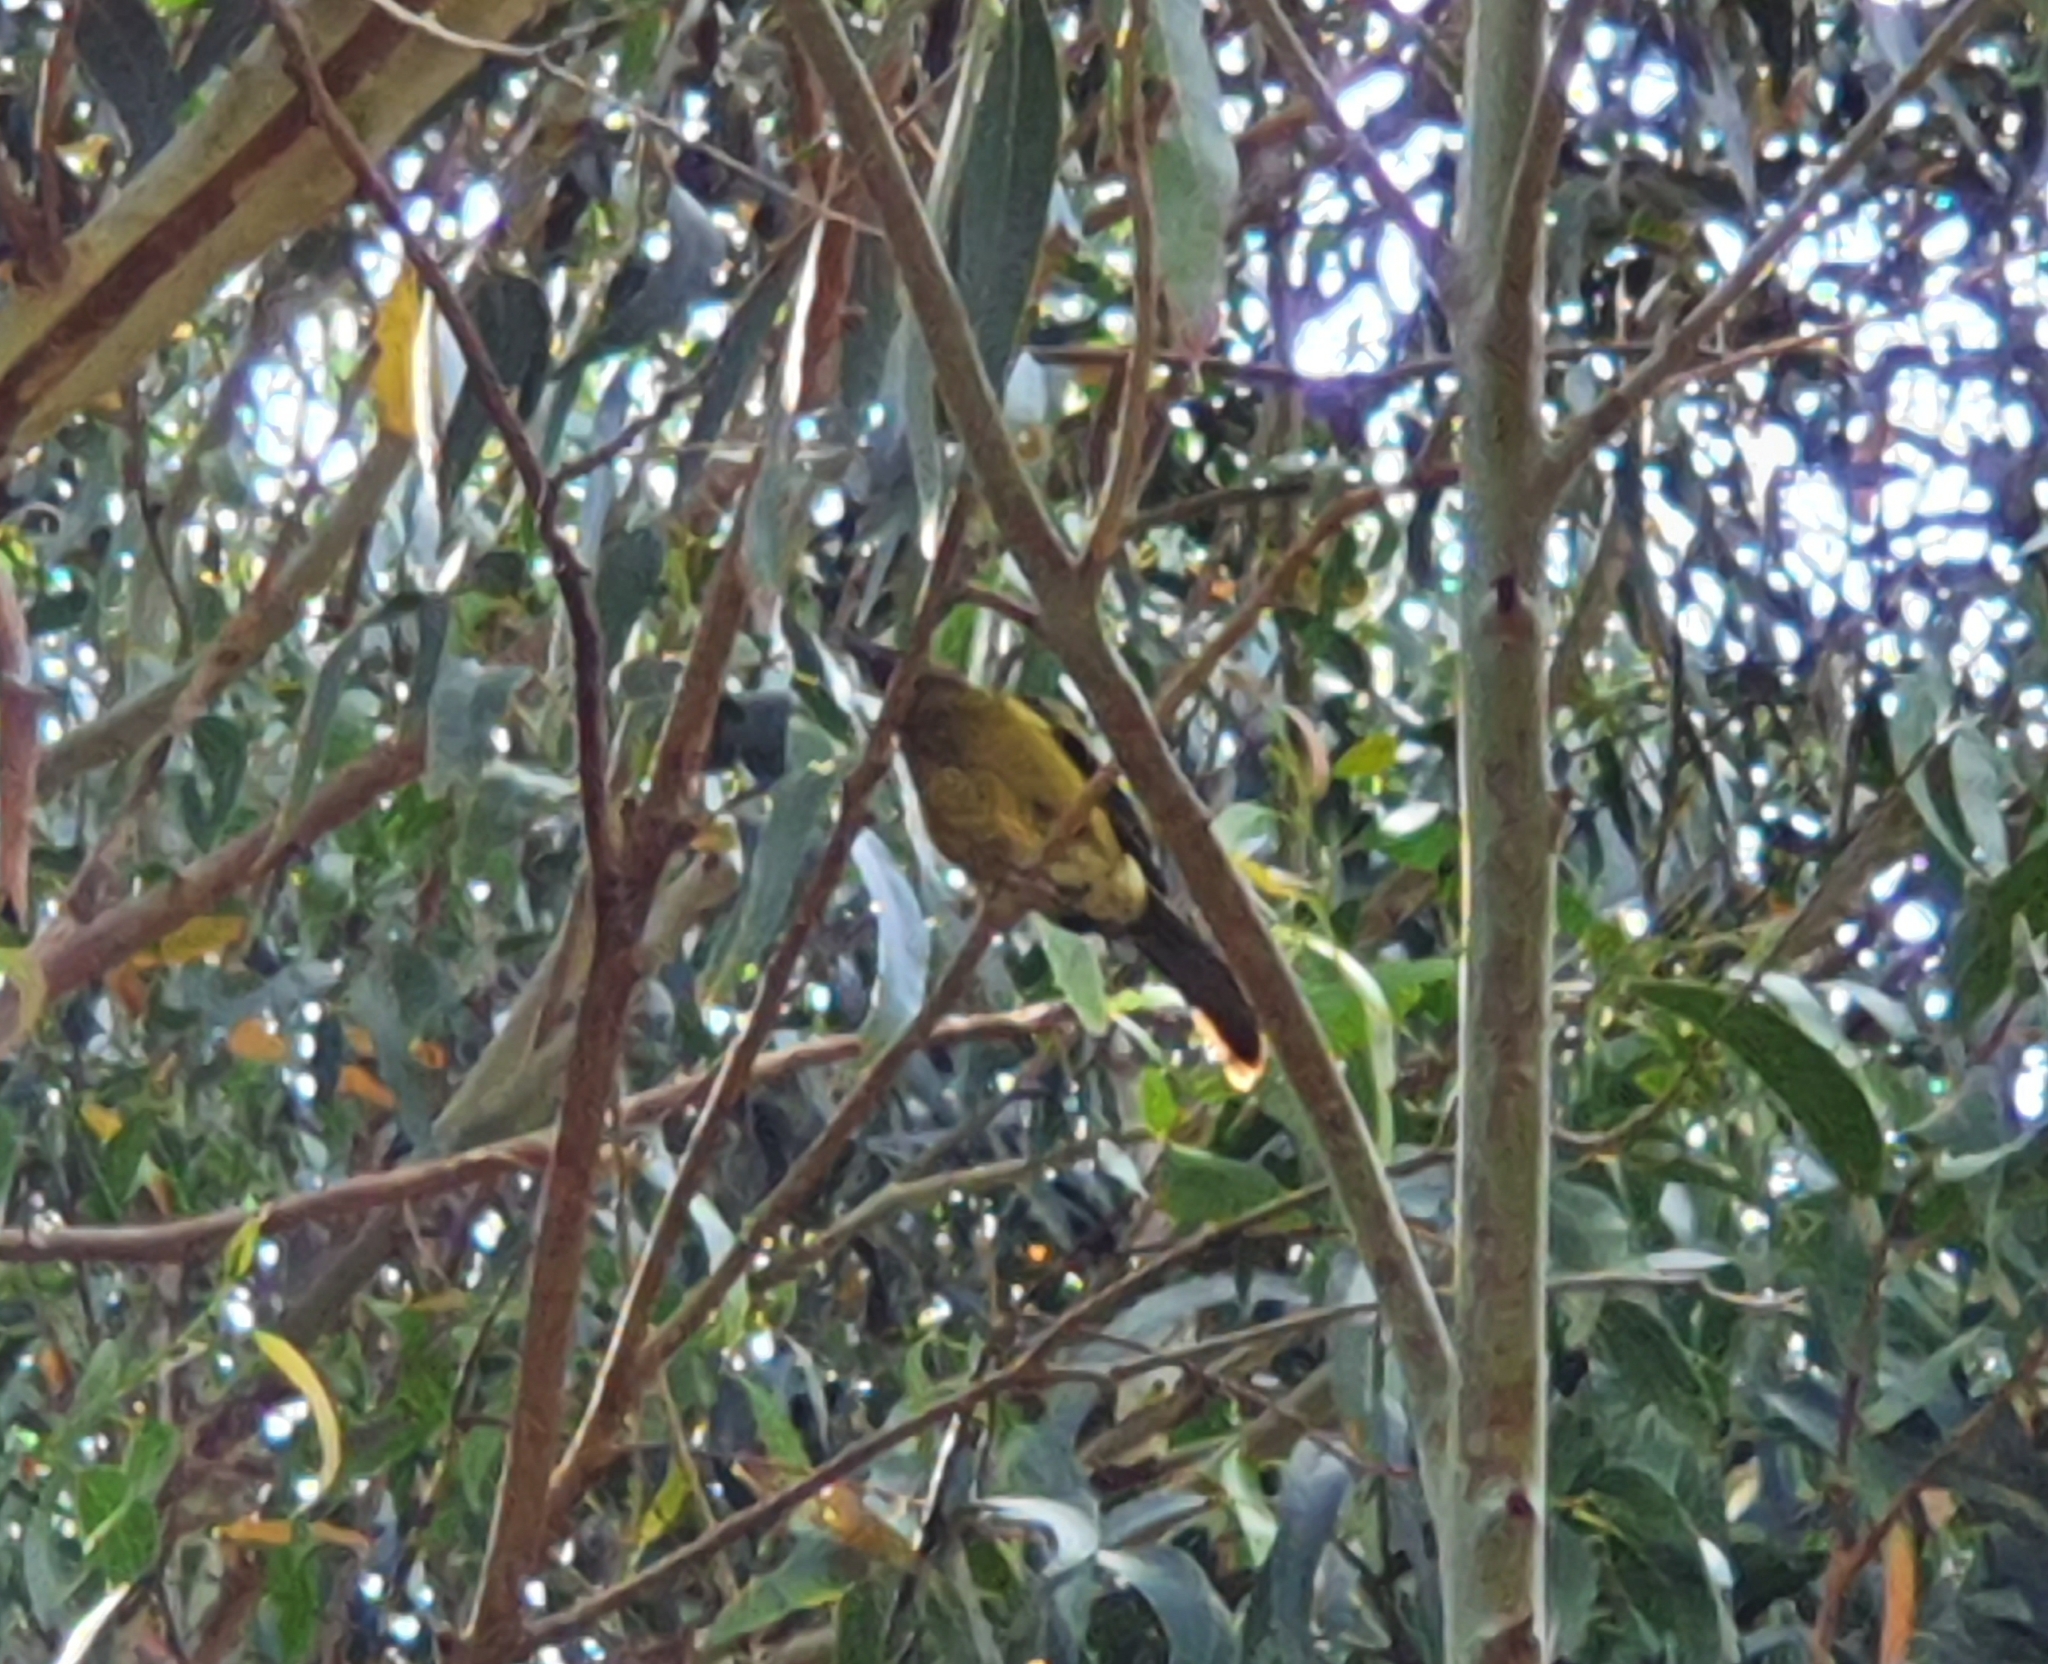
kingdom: Animalia
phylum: Chordata
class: Aves
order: Passeriformes
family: Meliphagidae
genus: Anthornis
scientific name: Anthornis melanura
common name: New zealand bellbird
